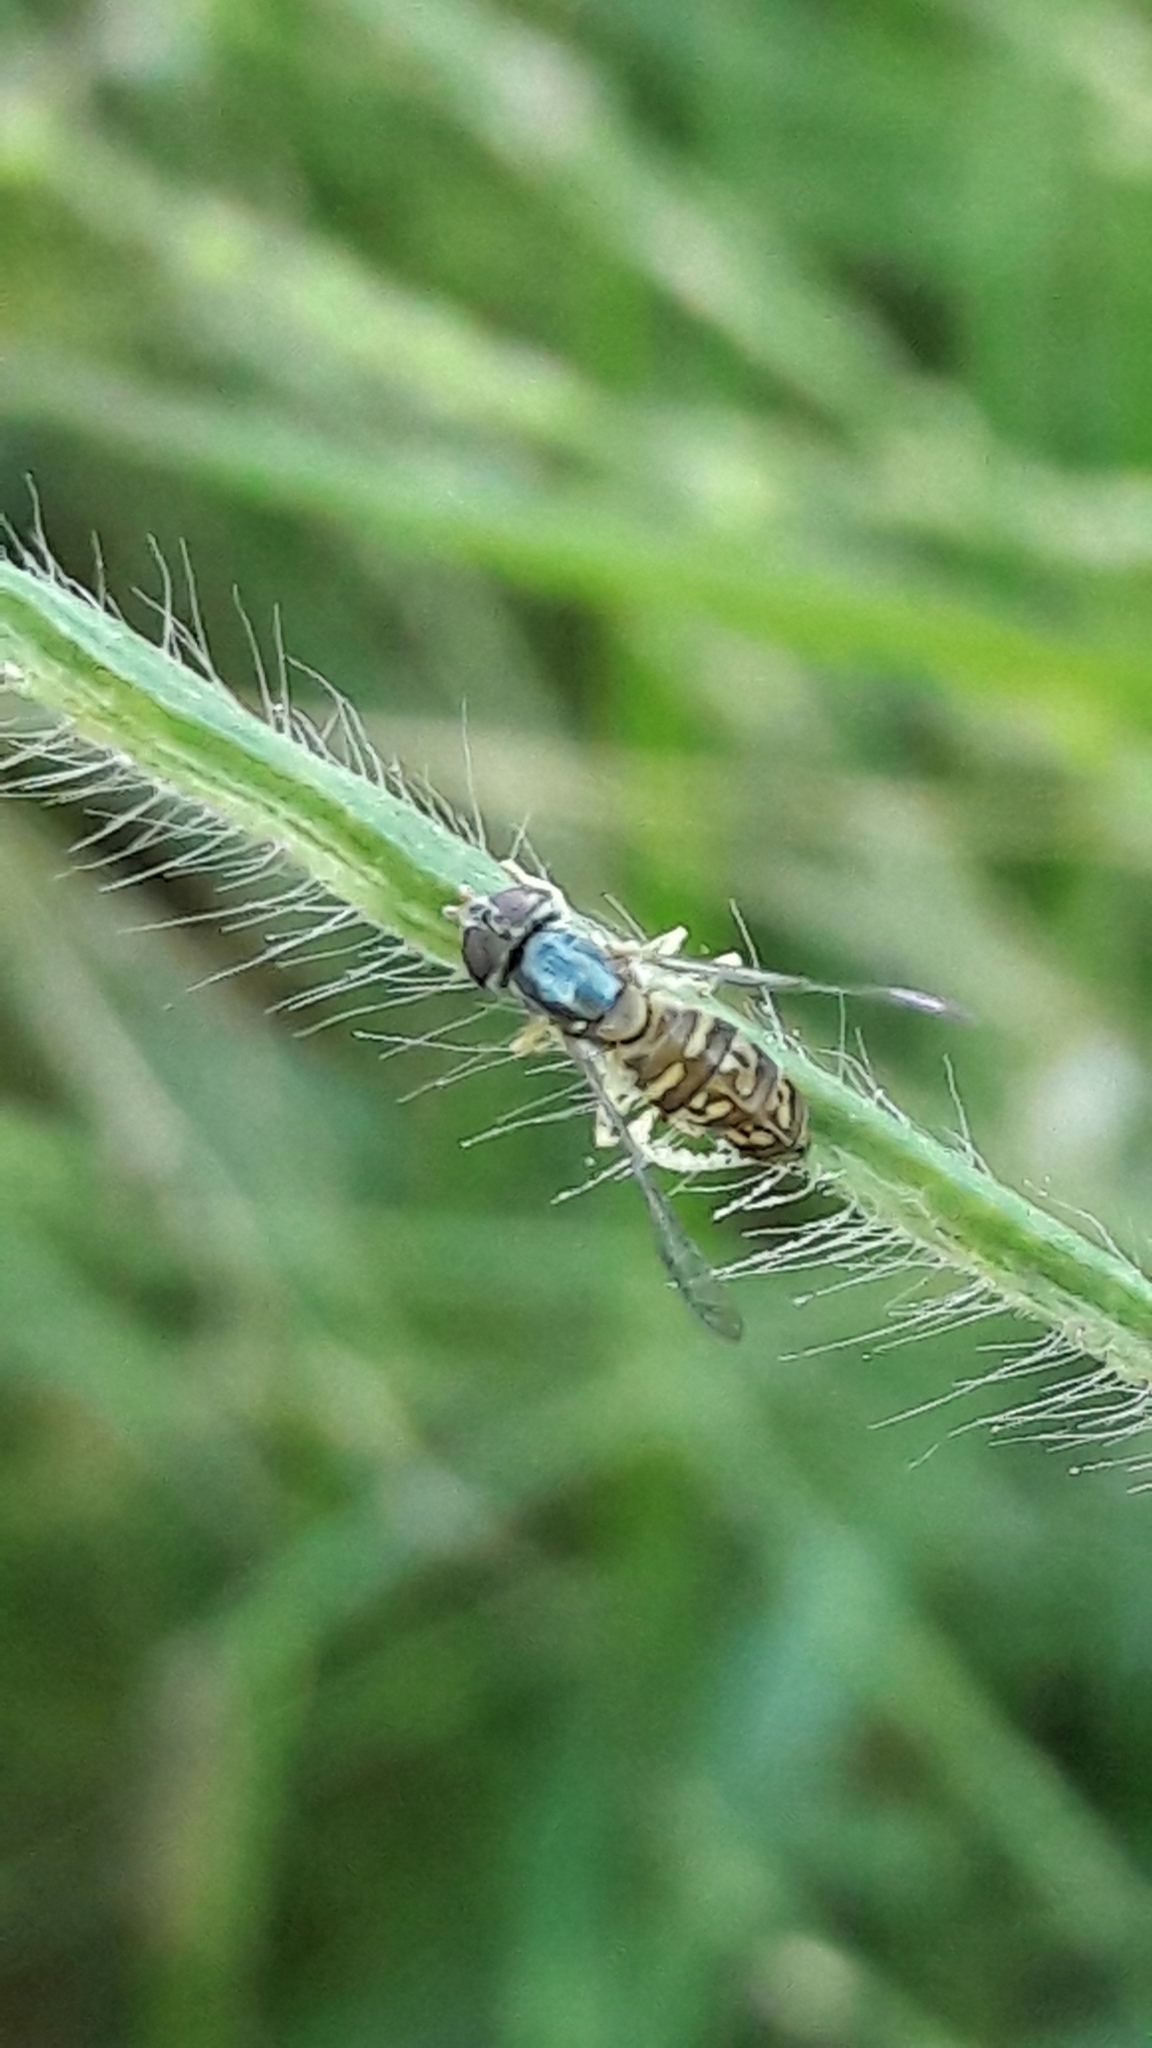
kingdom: Animalia
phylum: Arthropoda
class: Insecta
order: Diptera
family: Syrphidae
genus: Toxomerus
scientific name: Toxomerus
